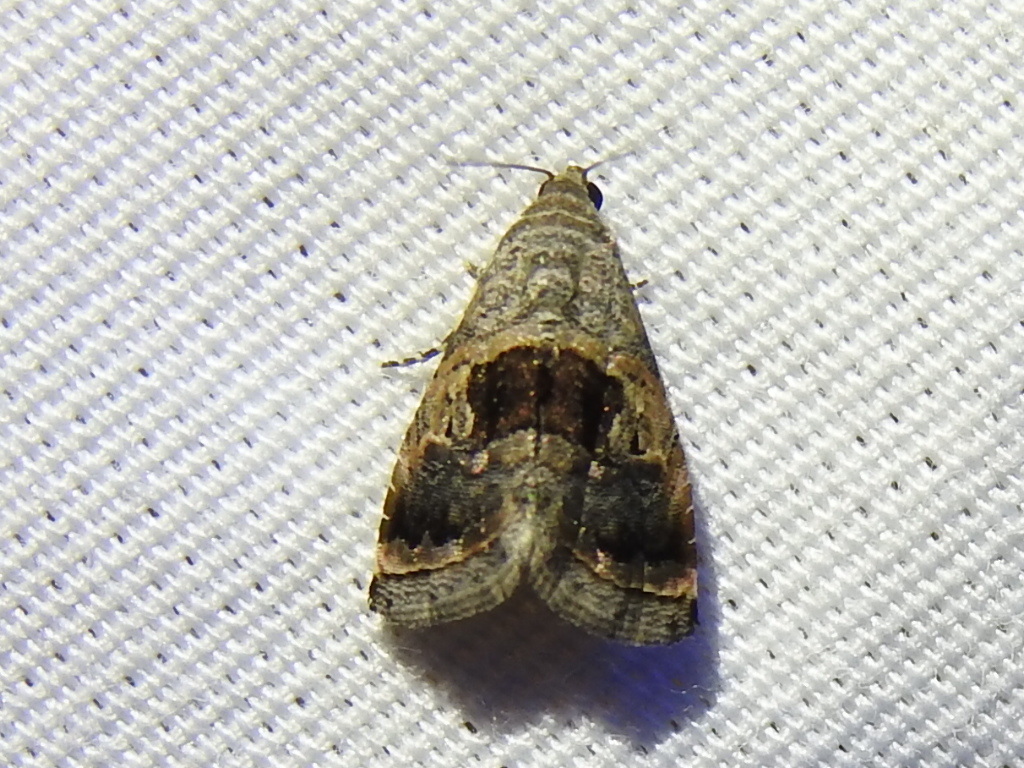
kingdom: Animalia
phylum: Arthropoda
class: Insecta
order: Lepidoptera
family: Noctuidae
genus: Tripudia
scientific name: Tripudia quadrifera
